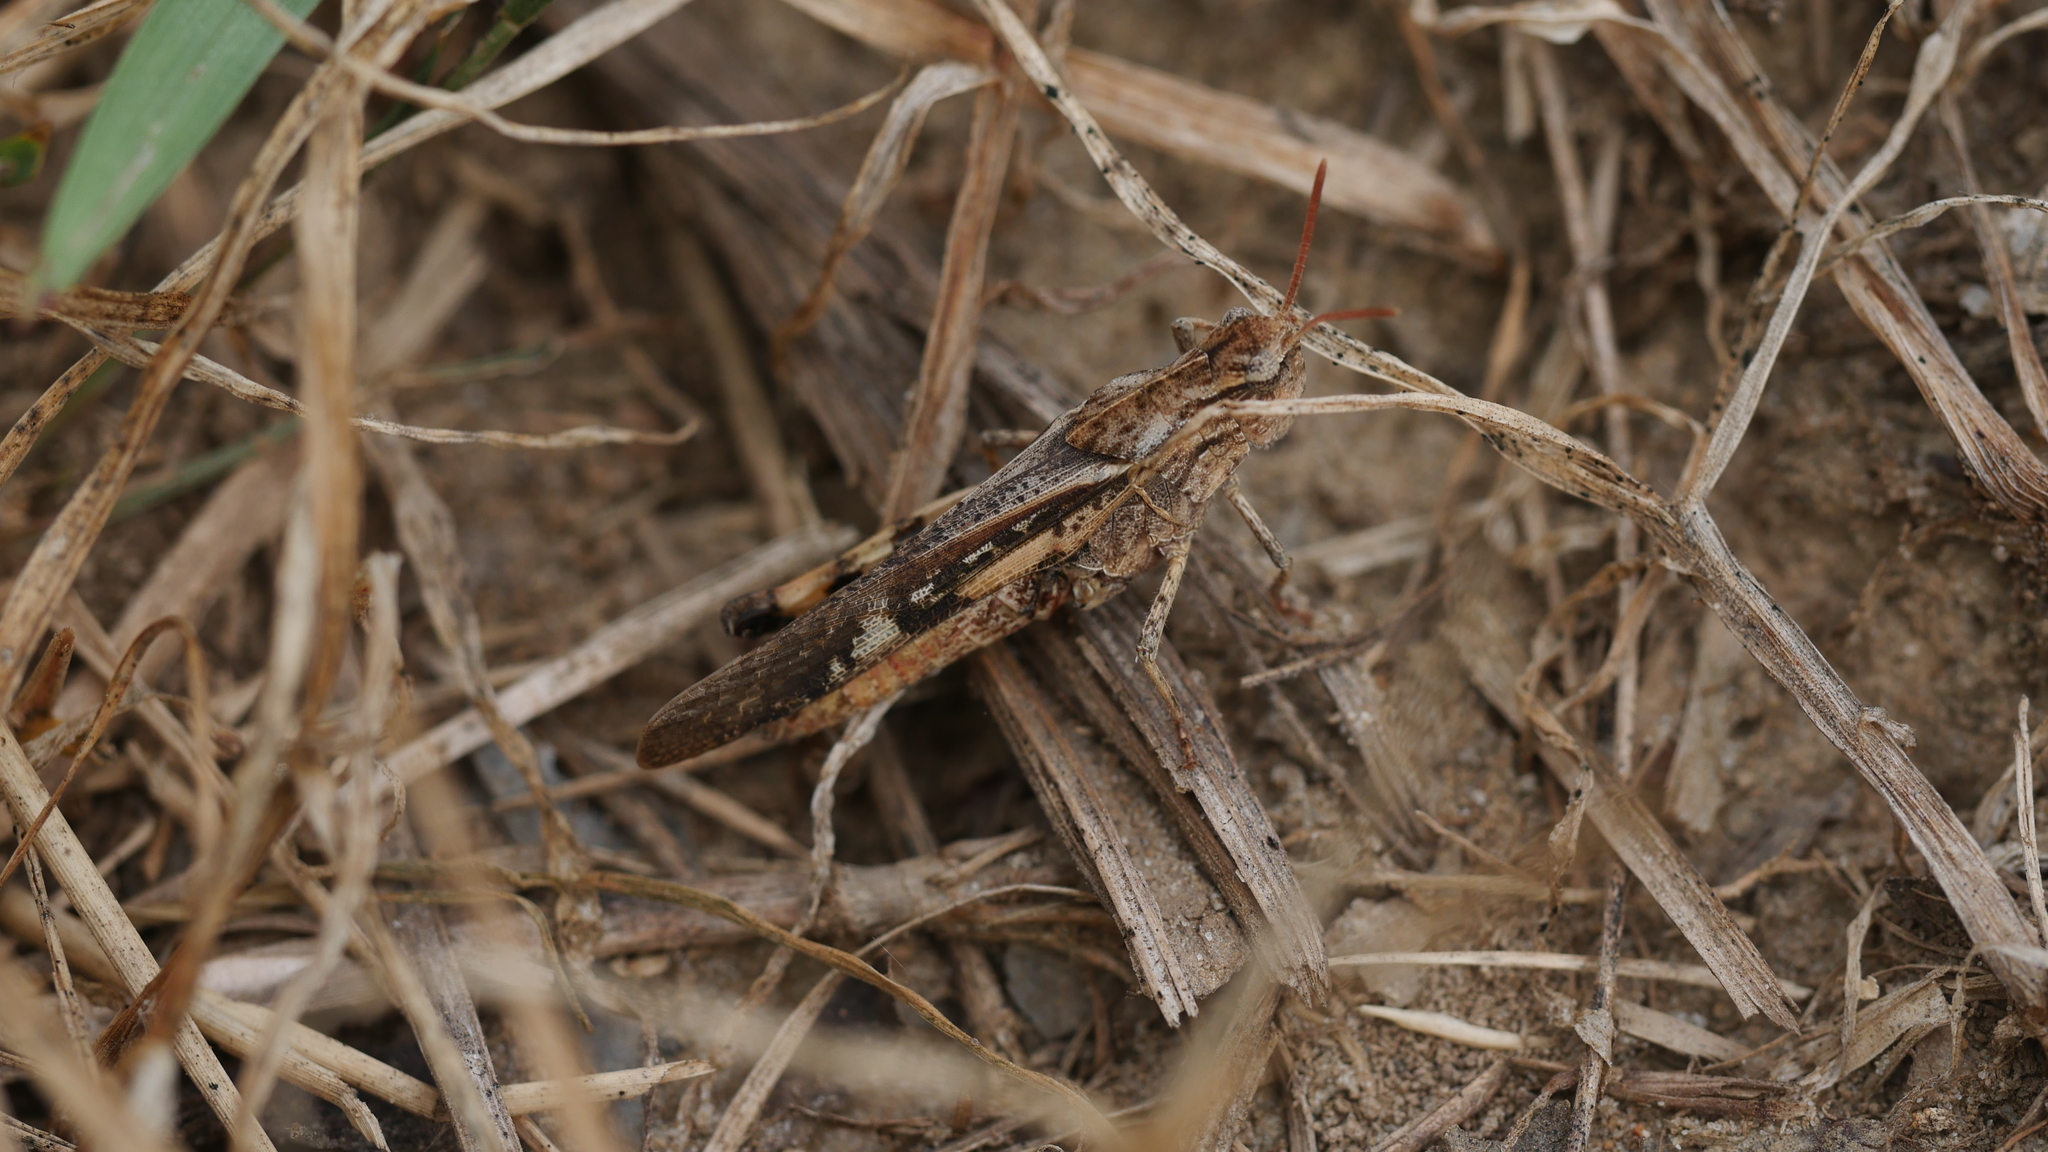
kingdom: Animalia
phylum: Arthropoda
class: Insecta
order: Orthoptera
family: Acrididae
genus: Chortophaga
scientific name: Chortophaga viridifasciata
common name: Green-striped grasshopper
